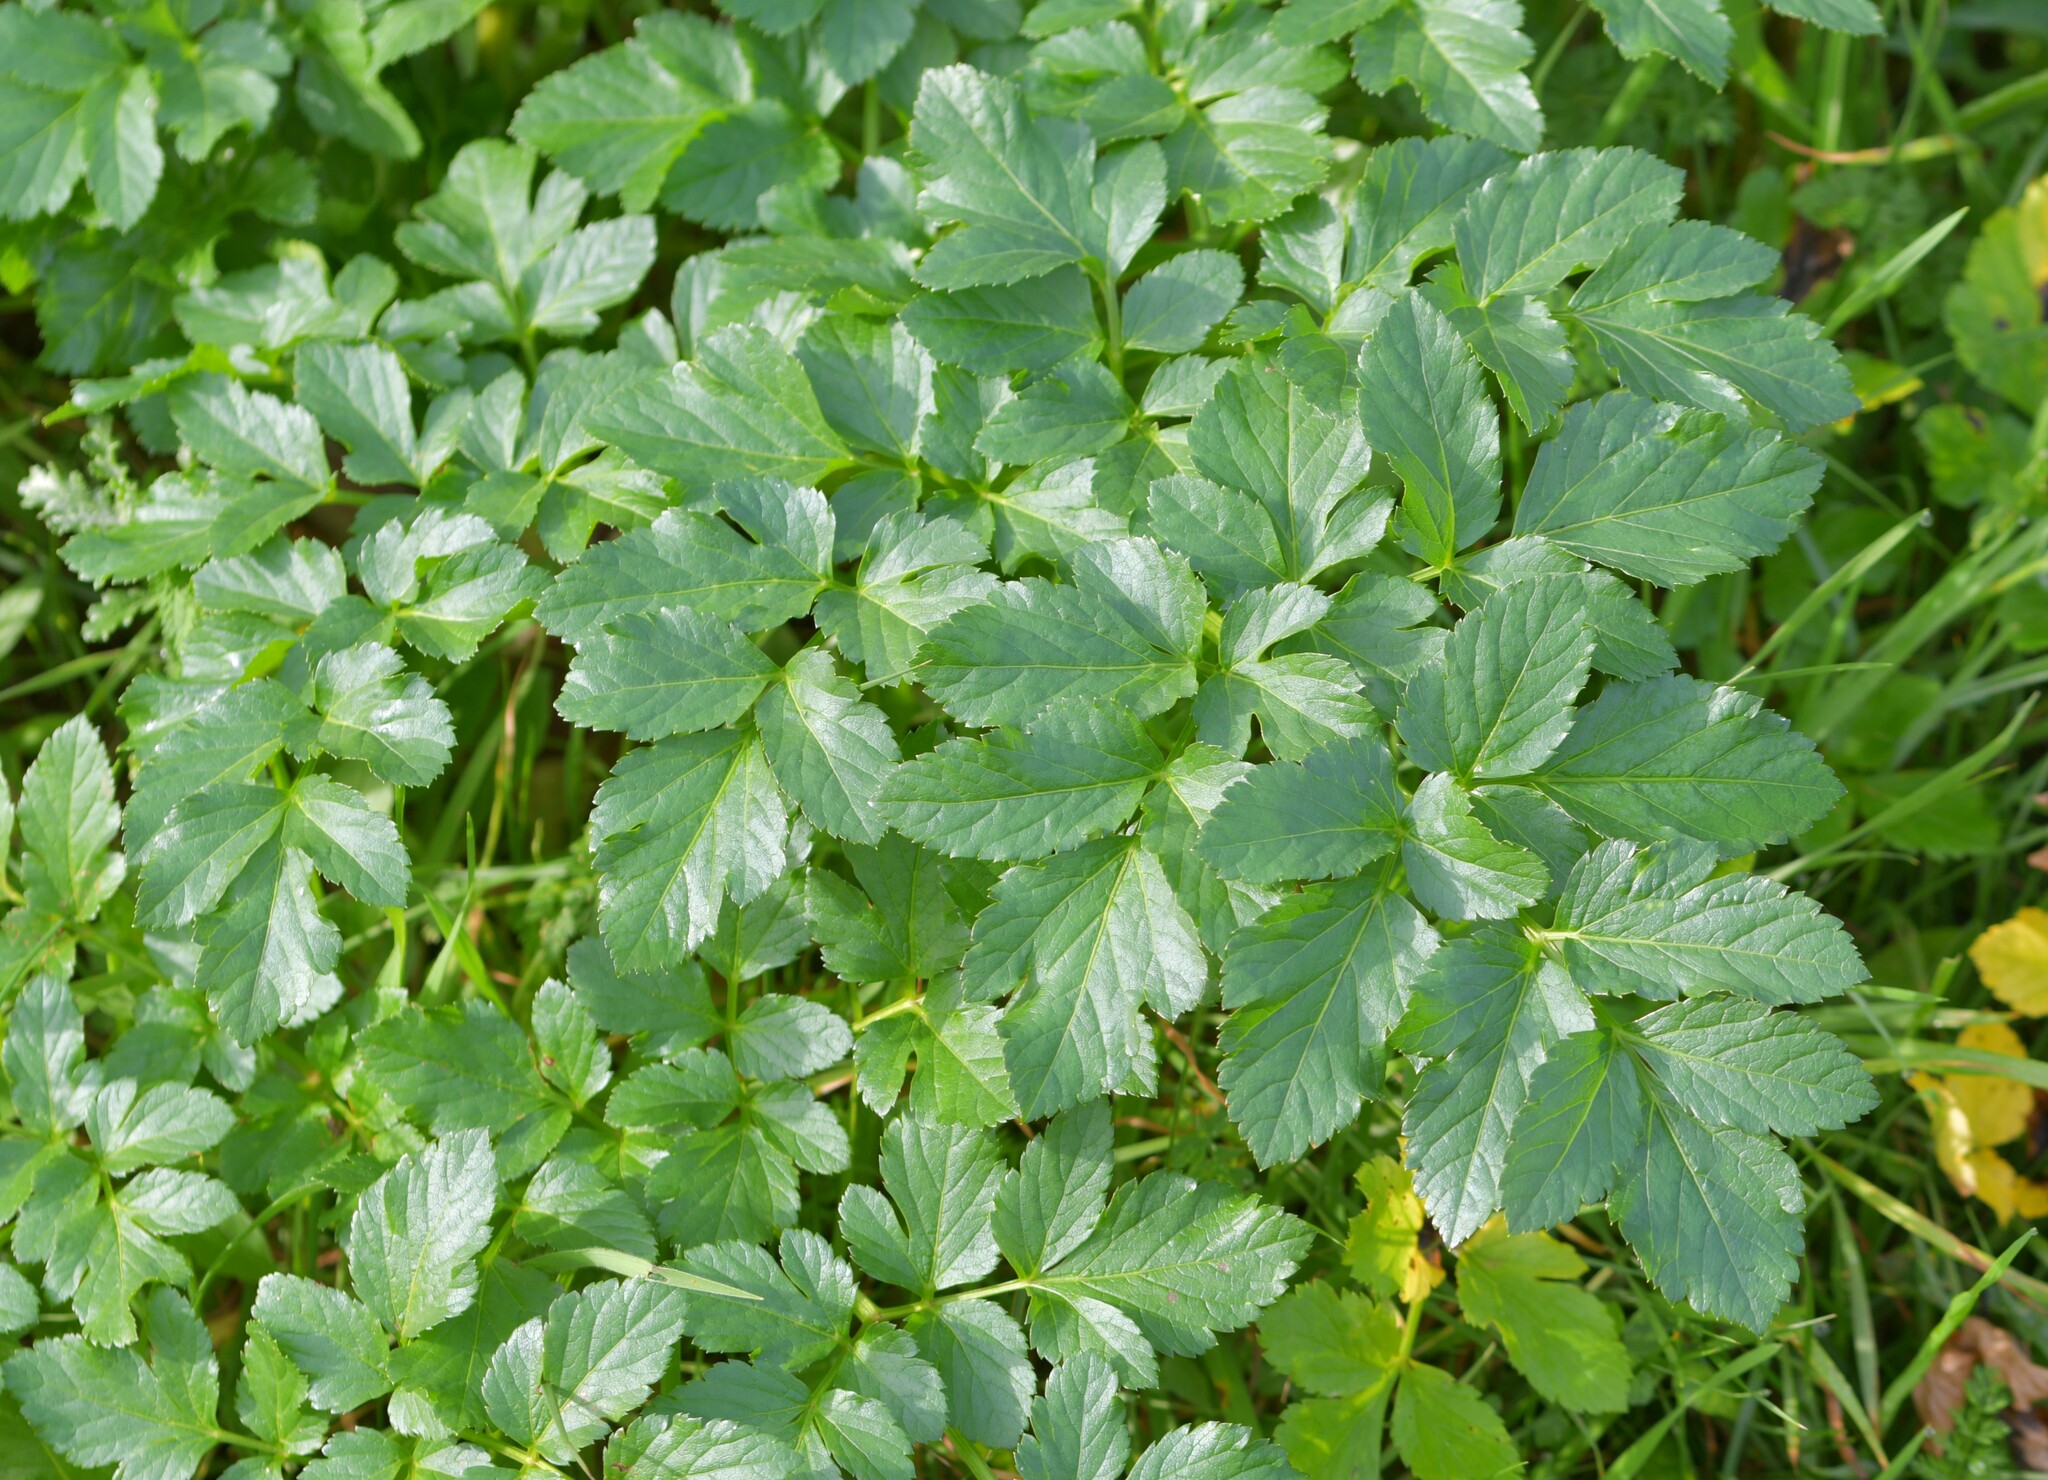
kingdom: Plantae
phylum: Tracheophyta
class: Magnoliopsida
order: Apiales
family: Apiaceae
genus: Smyrnium
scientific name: Smyrnium olusatrum
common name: Alexanders
